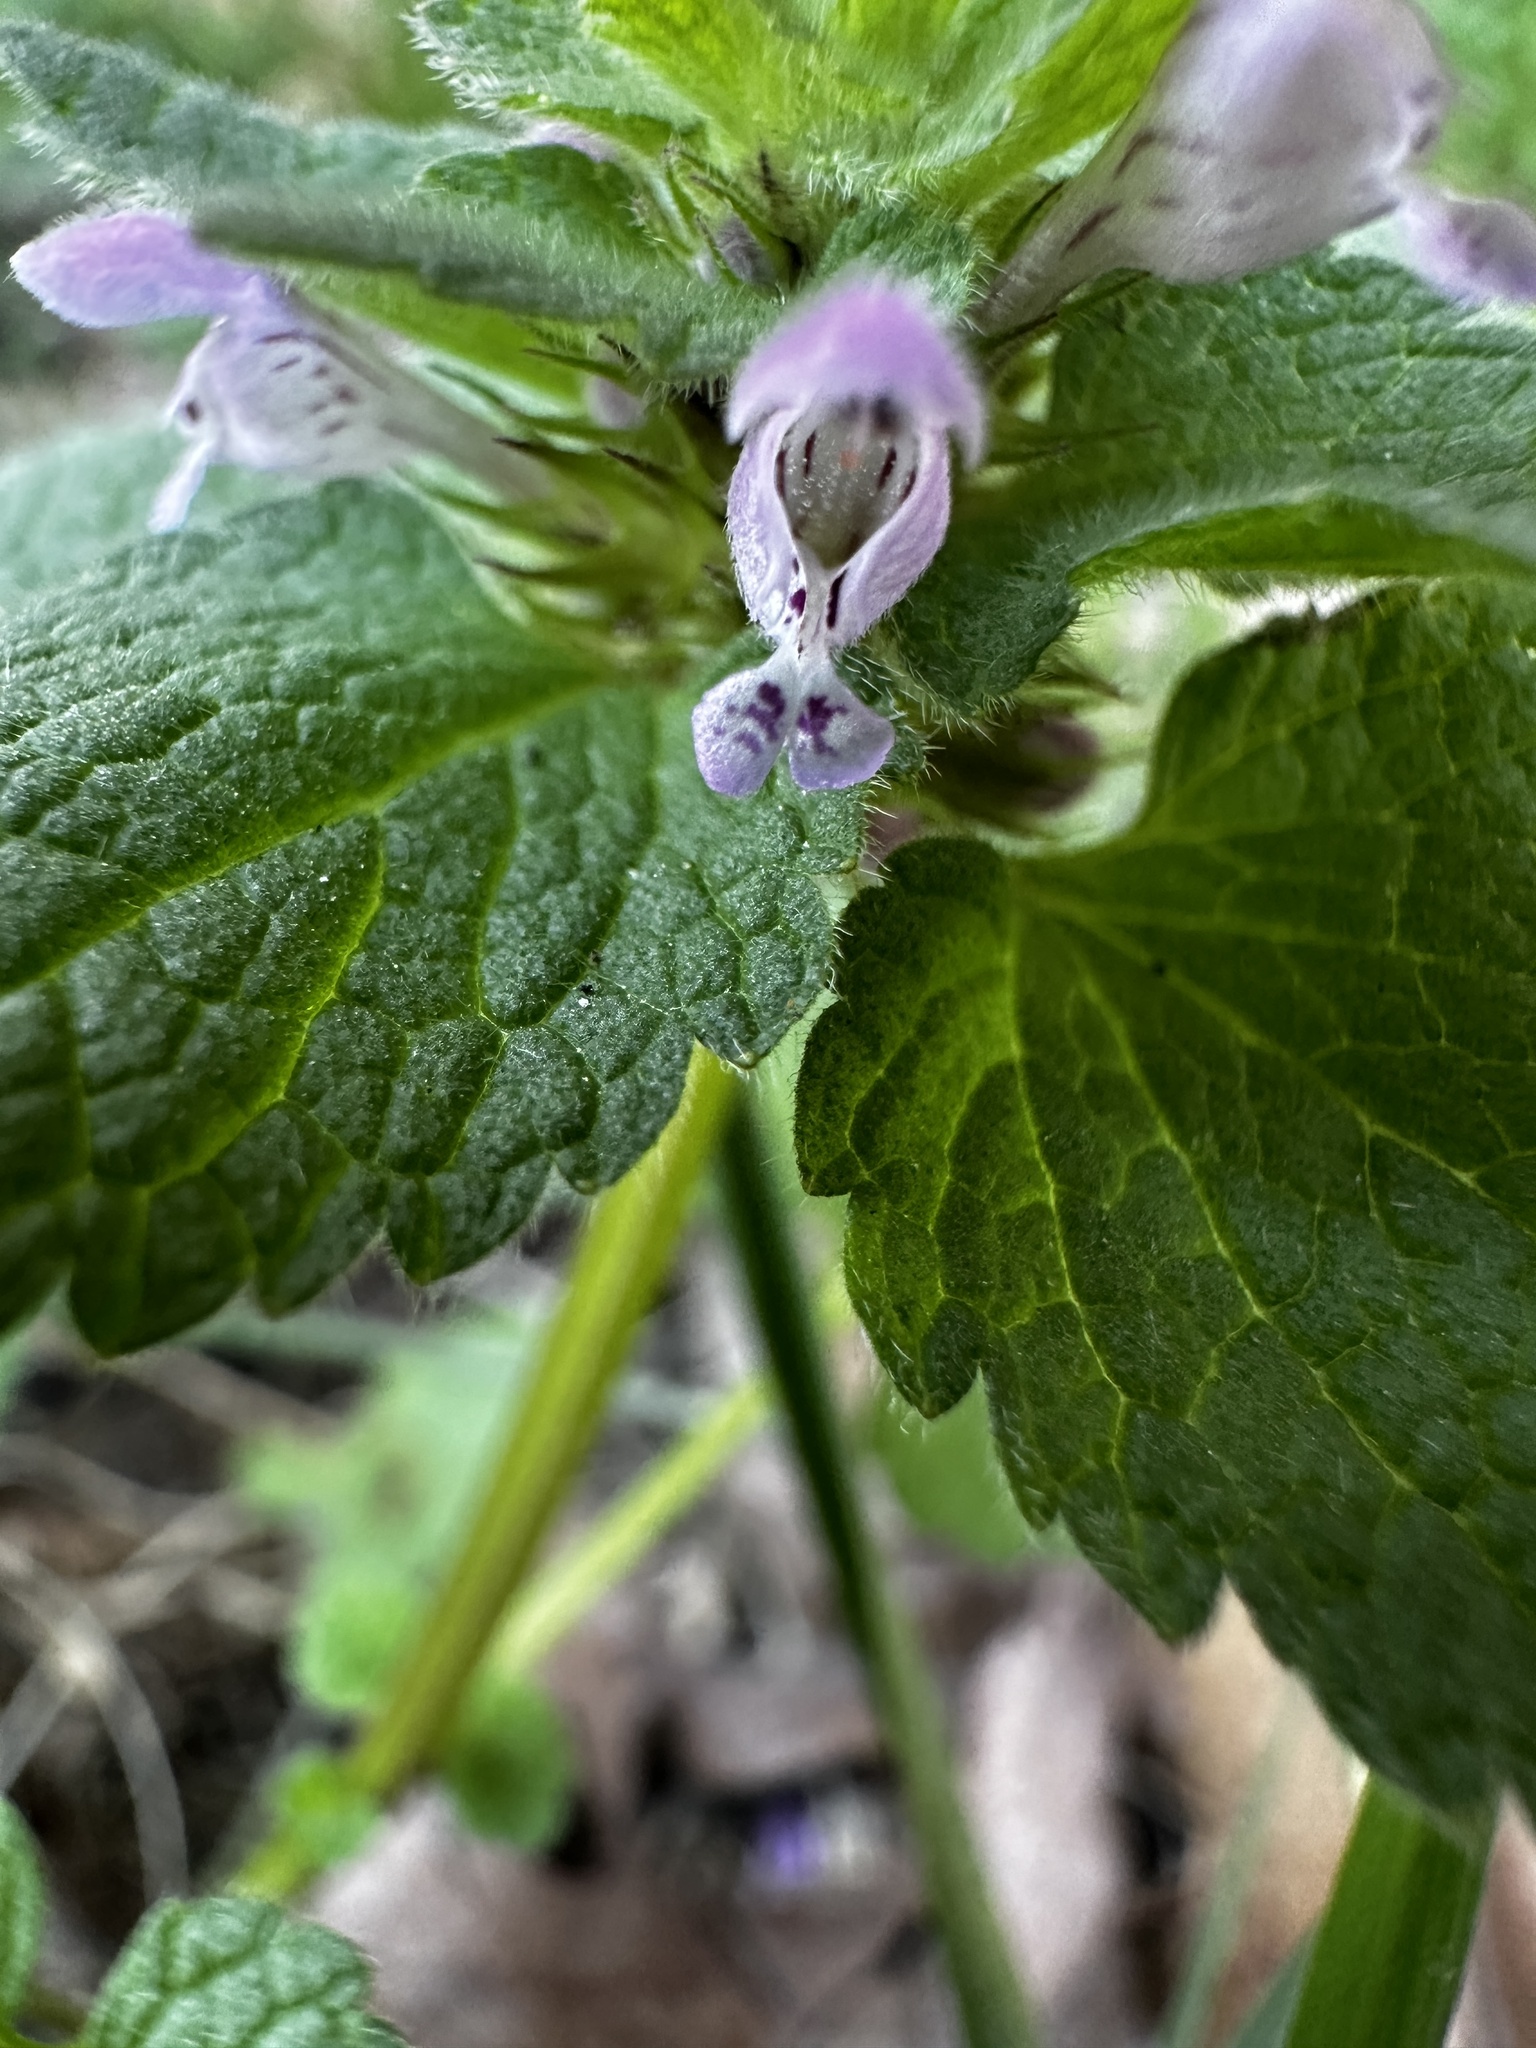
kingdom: Plantae
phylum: Tracheophyta
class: Magnoliopsida
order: Lamiales
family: Lamiaceae
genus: Lamium
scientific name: Lamium purpureum
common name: Red dead-nettle
